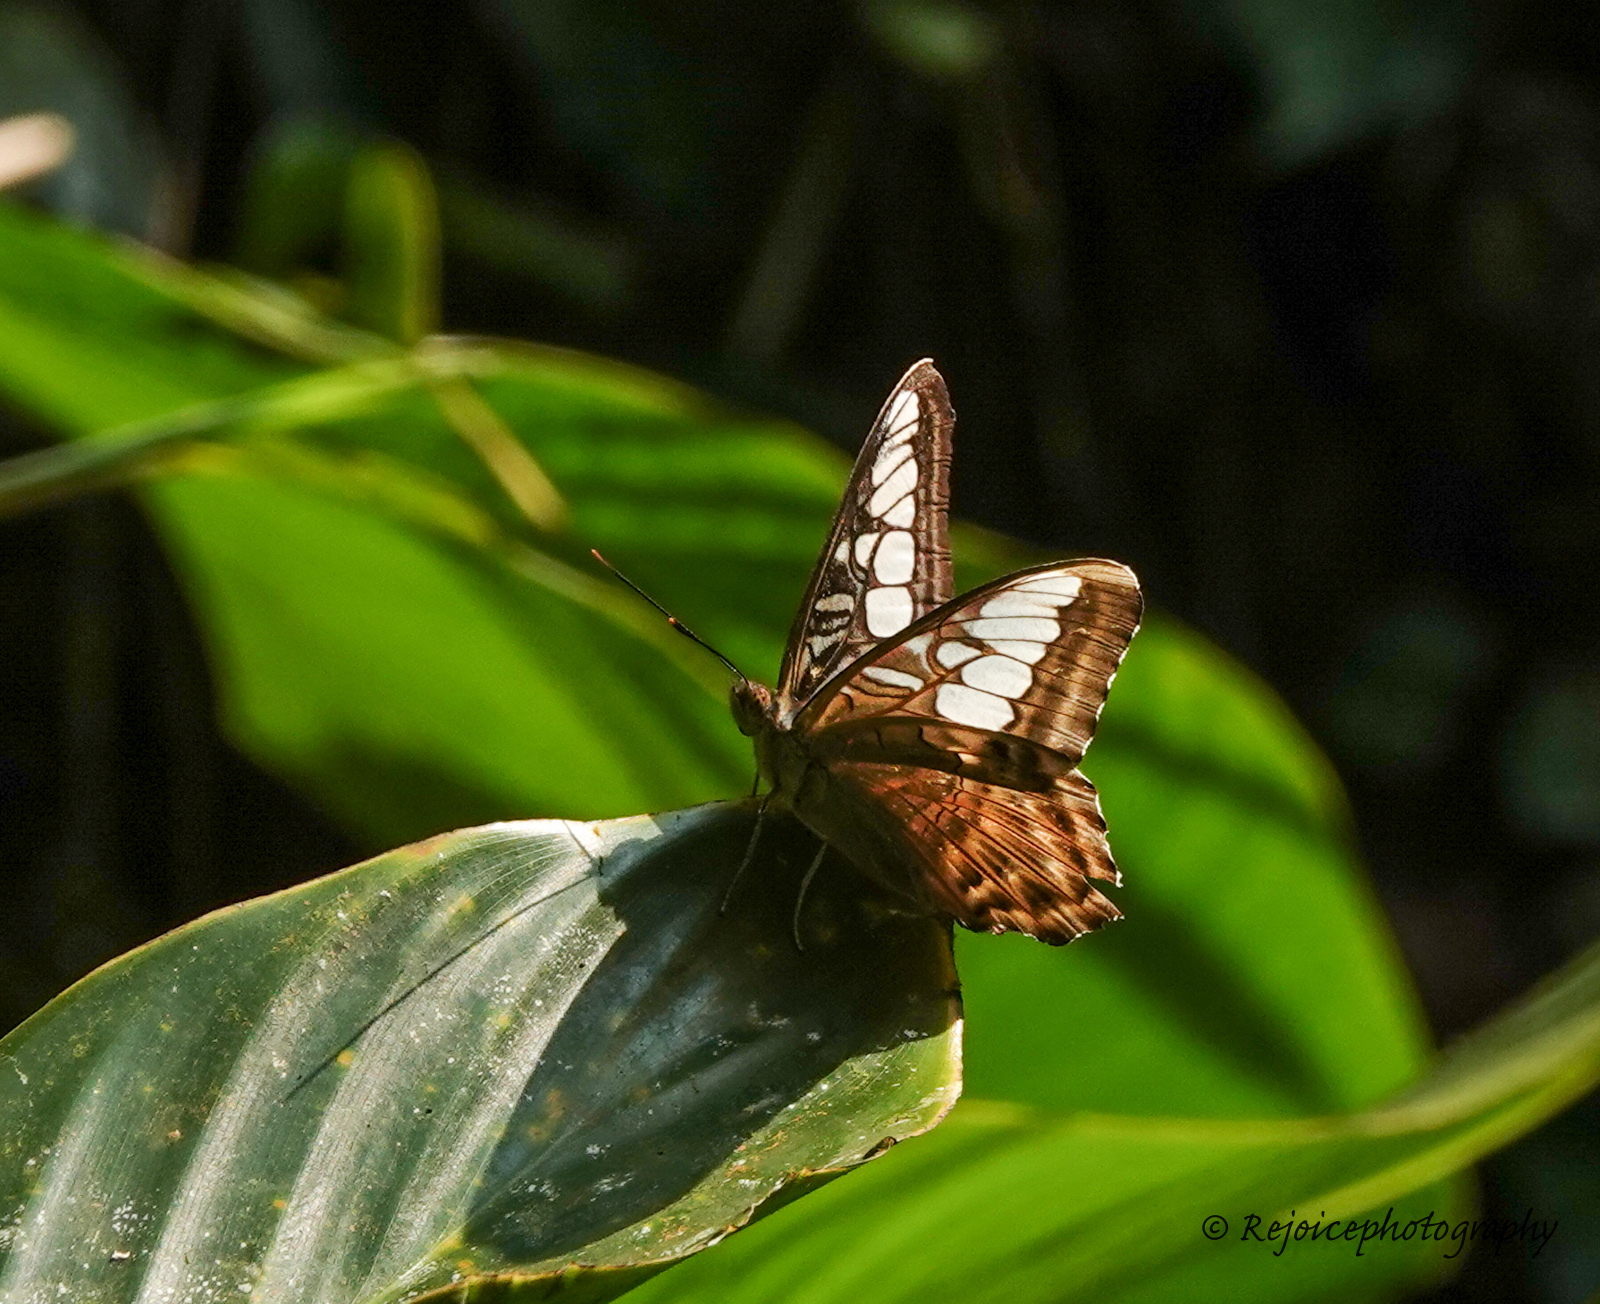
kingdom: Animalia
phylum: Arthropoda
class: Insecta
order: Lepidoptera
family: Nymphalidae
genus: Kallima
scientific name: Kallima sylvia
